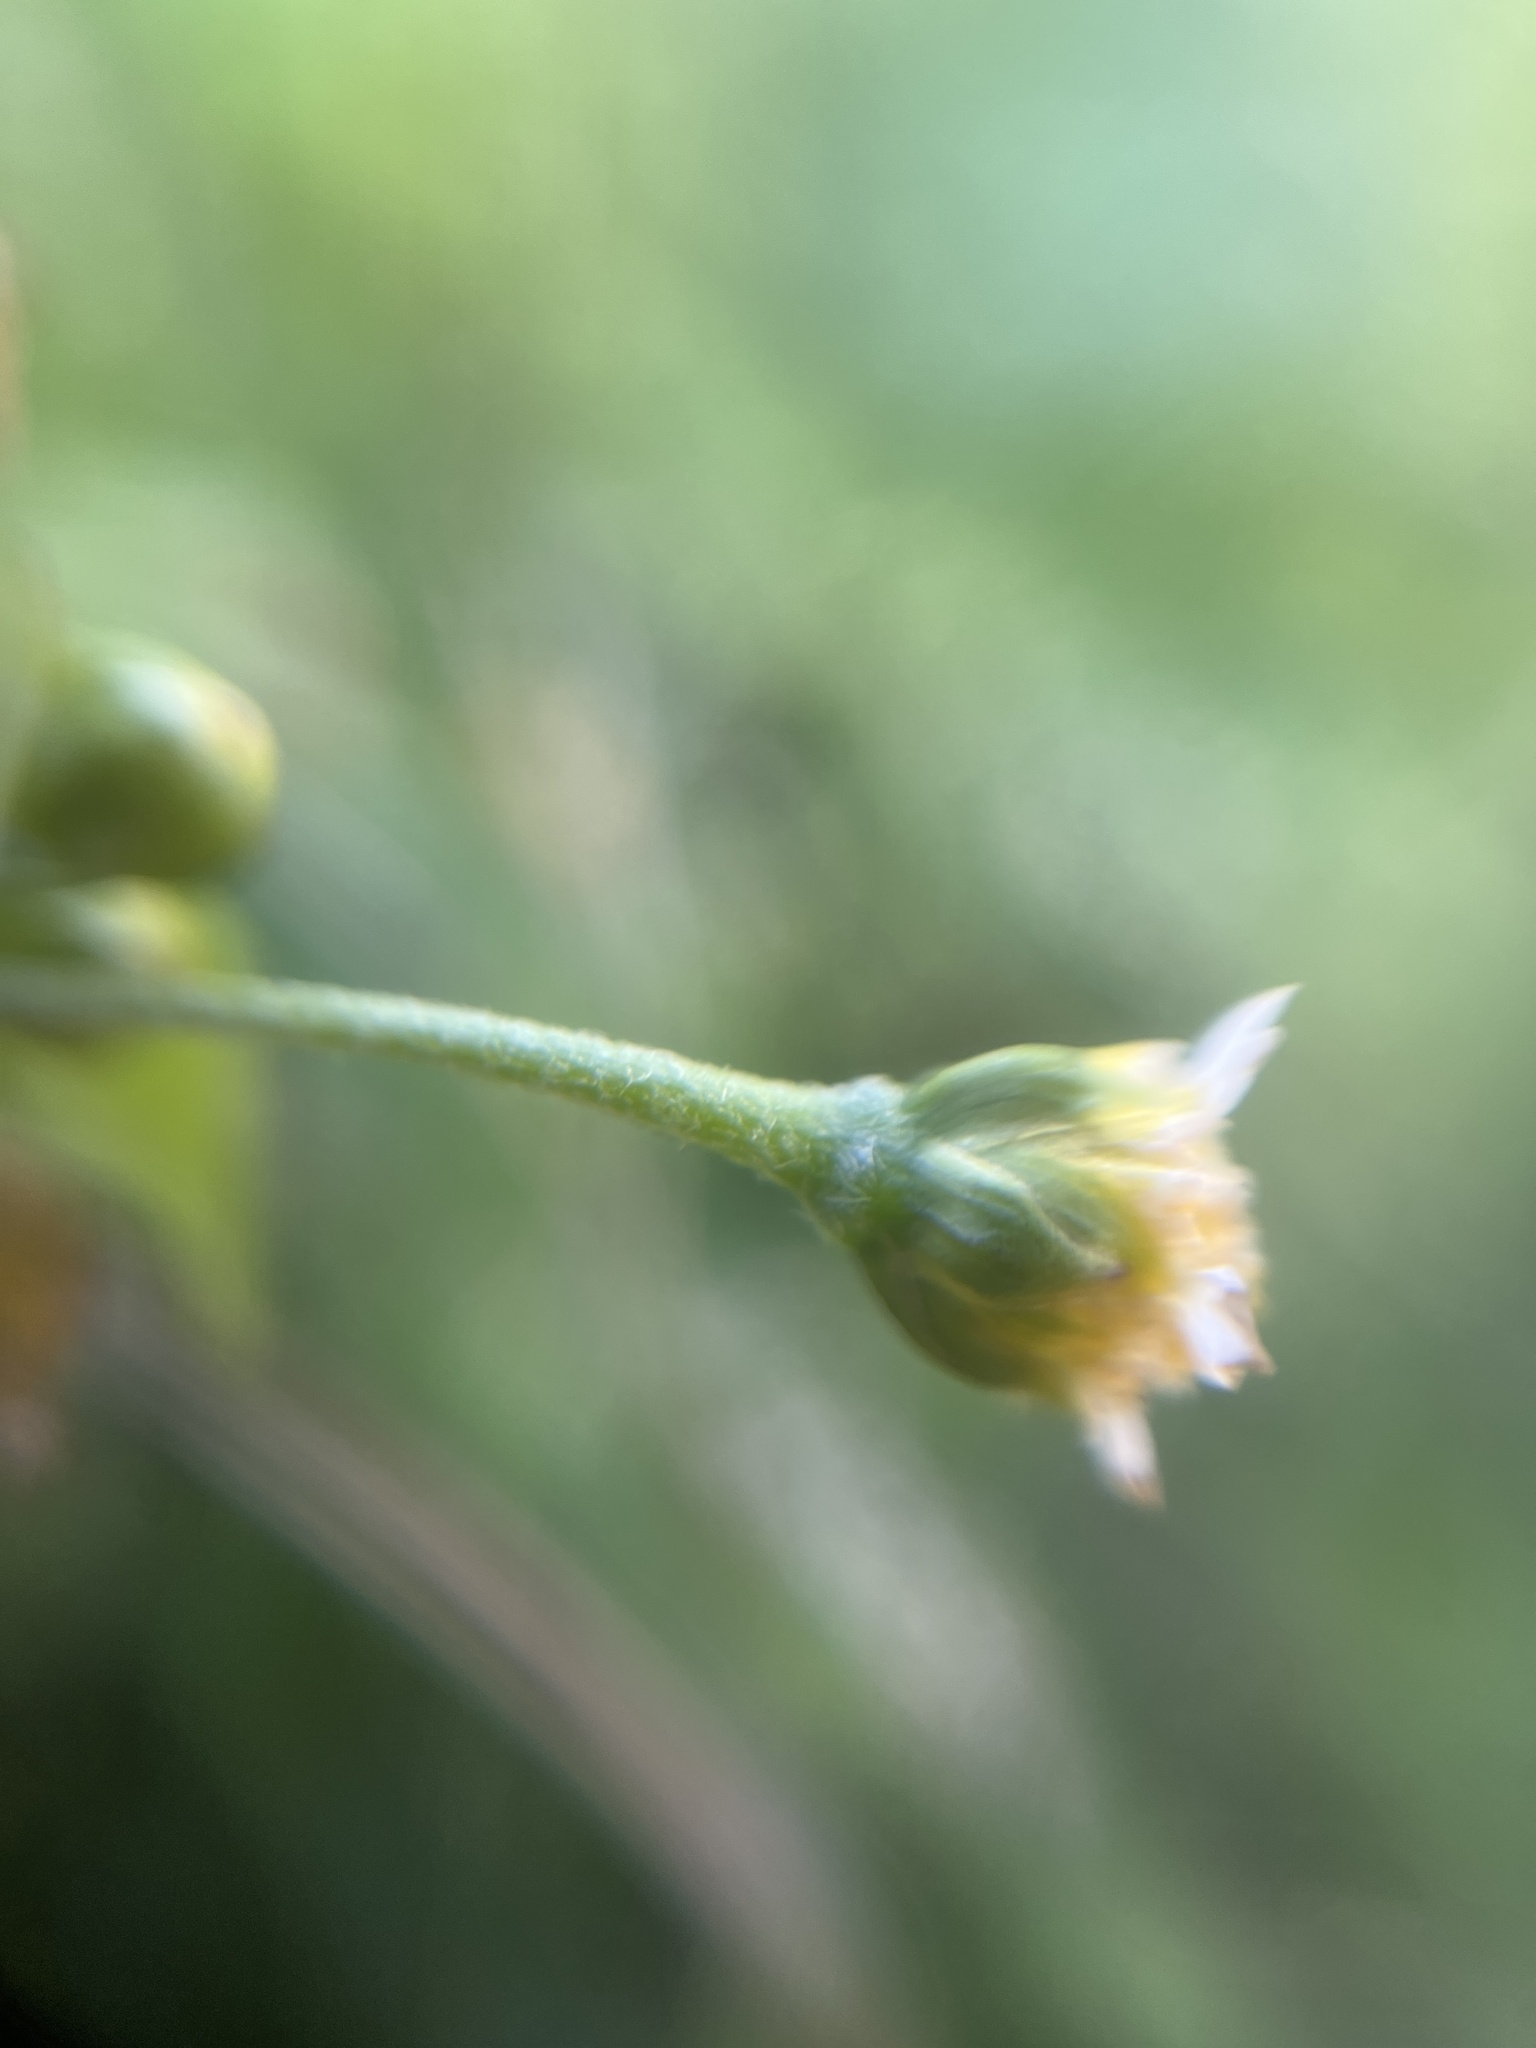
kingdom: Plantae
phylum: Tracheophyta
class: Magnoliopsida
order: Asterales
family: Asteraceae
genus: Galinsoga
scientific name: Galinsoga parviflora
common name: Gallant soldier
